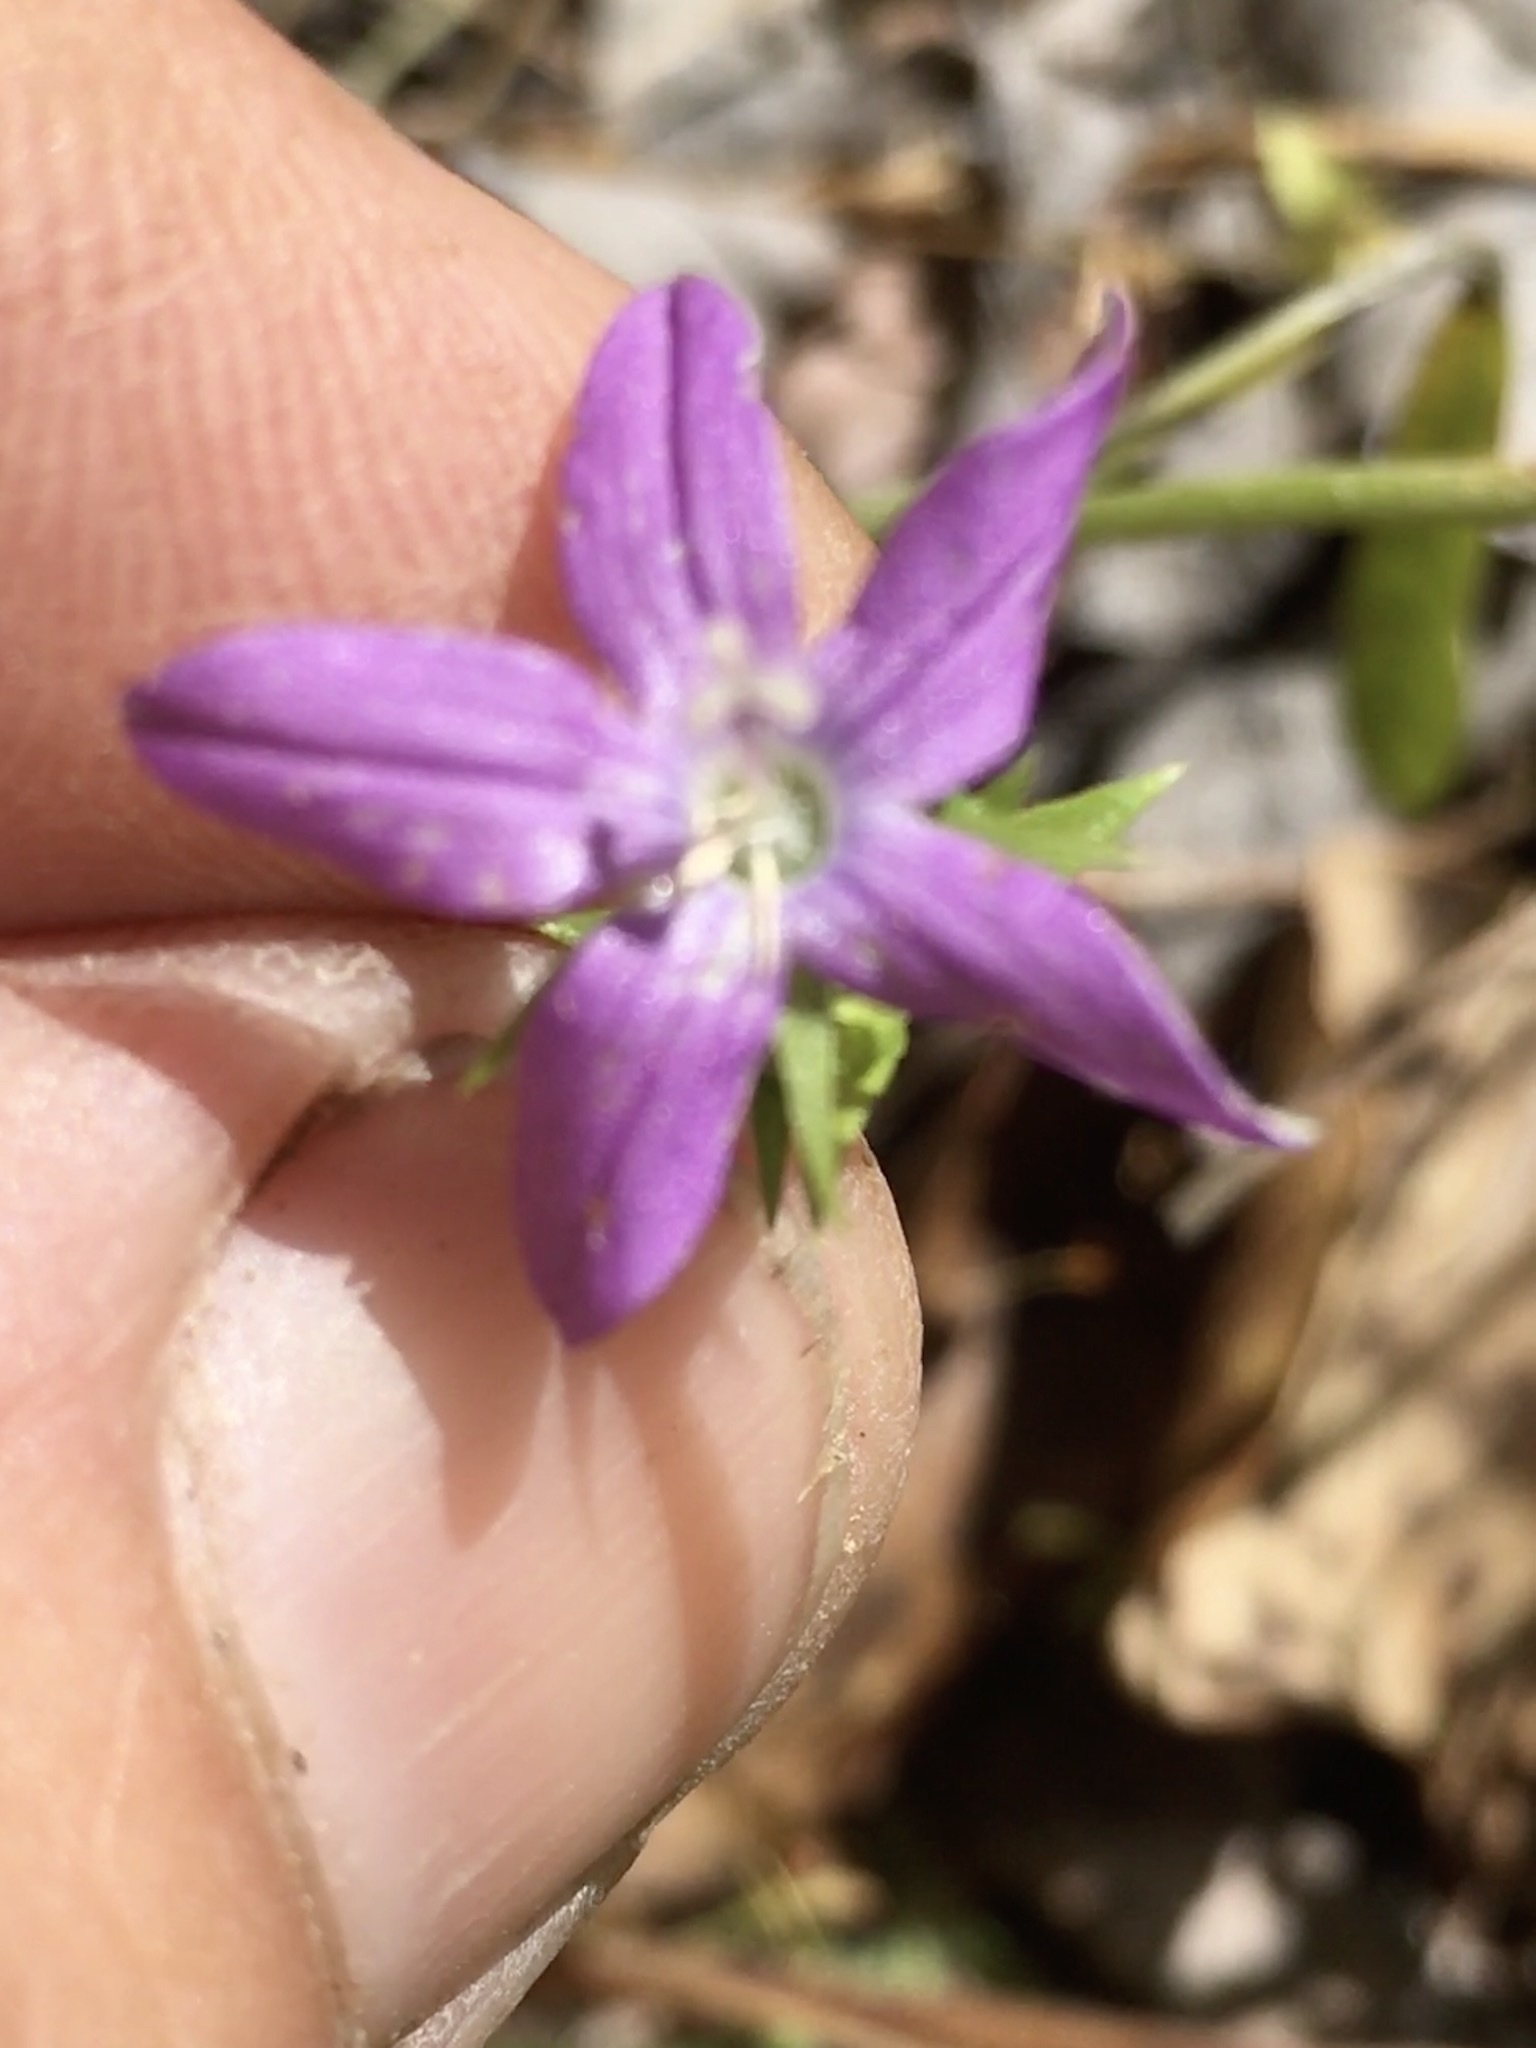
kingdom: Plantae
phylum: Tracheophyta
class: Magnoliopsida
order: Asterales
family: Campanulaceae
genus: Triodanis
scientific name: Triodanis biflora
